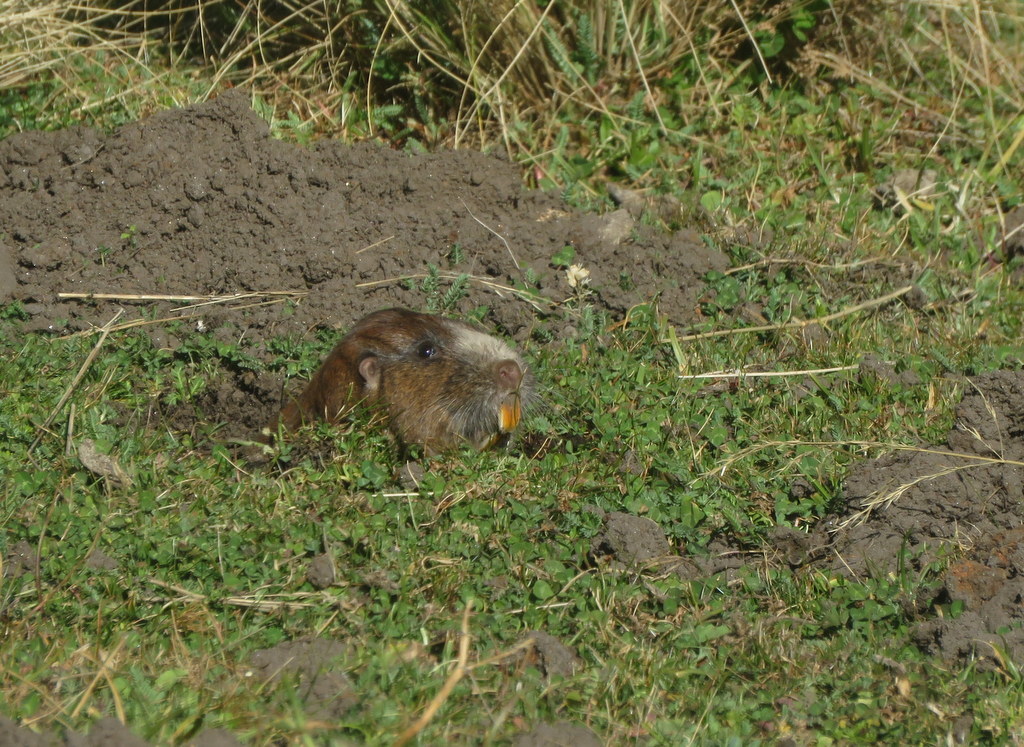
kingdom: Animalia
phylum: Chordata
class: Mammalia
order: Rodentia
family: Ctenomyidae
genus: Ctenomys
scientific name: Ctenomys tuconax
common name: Robust tuco-tuco
